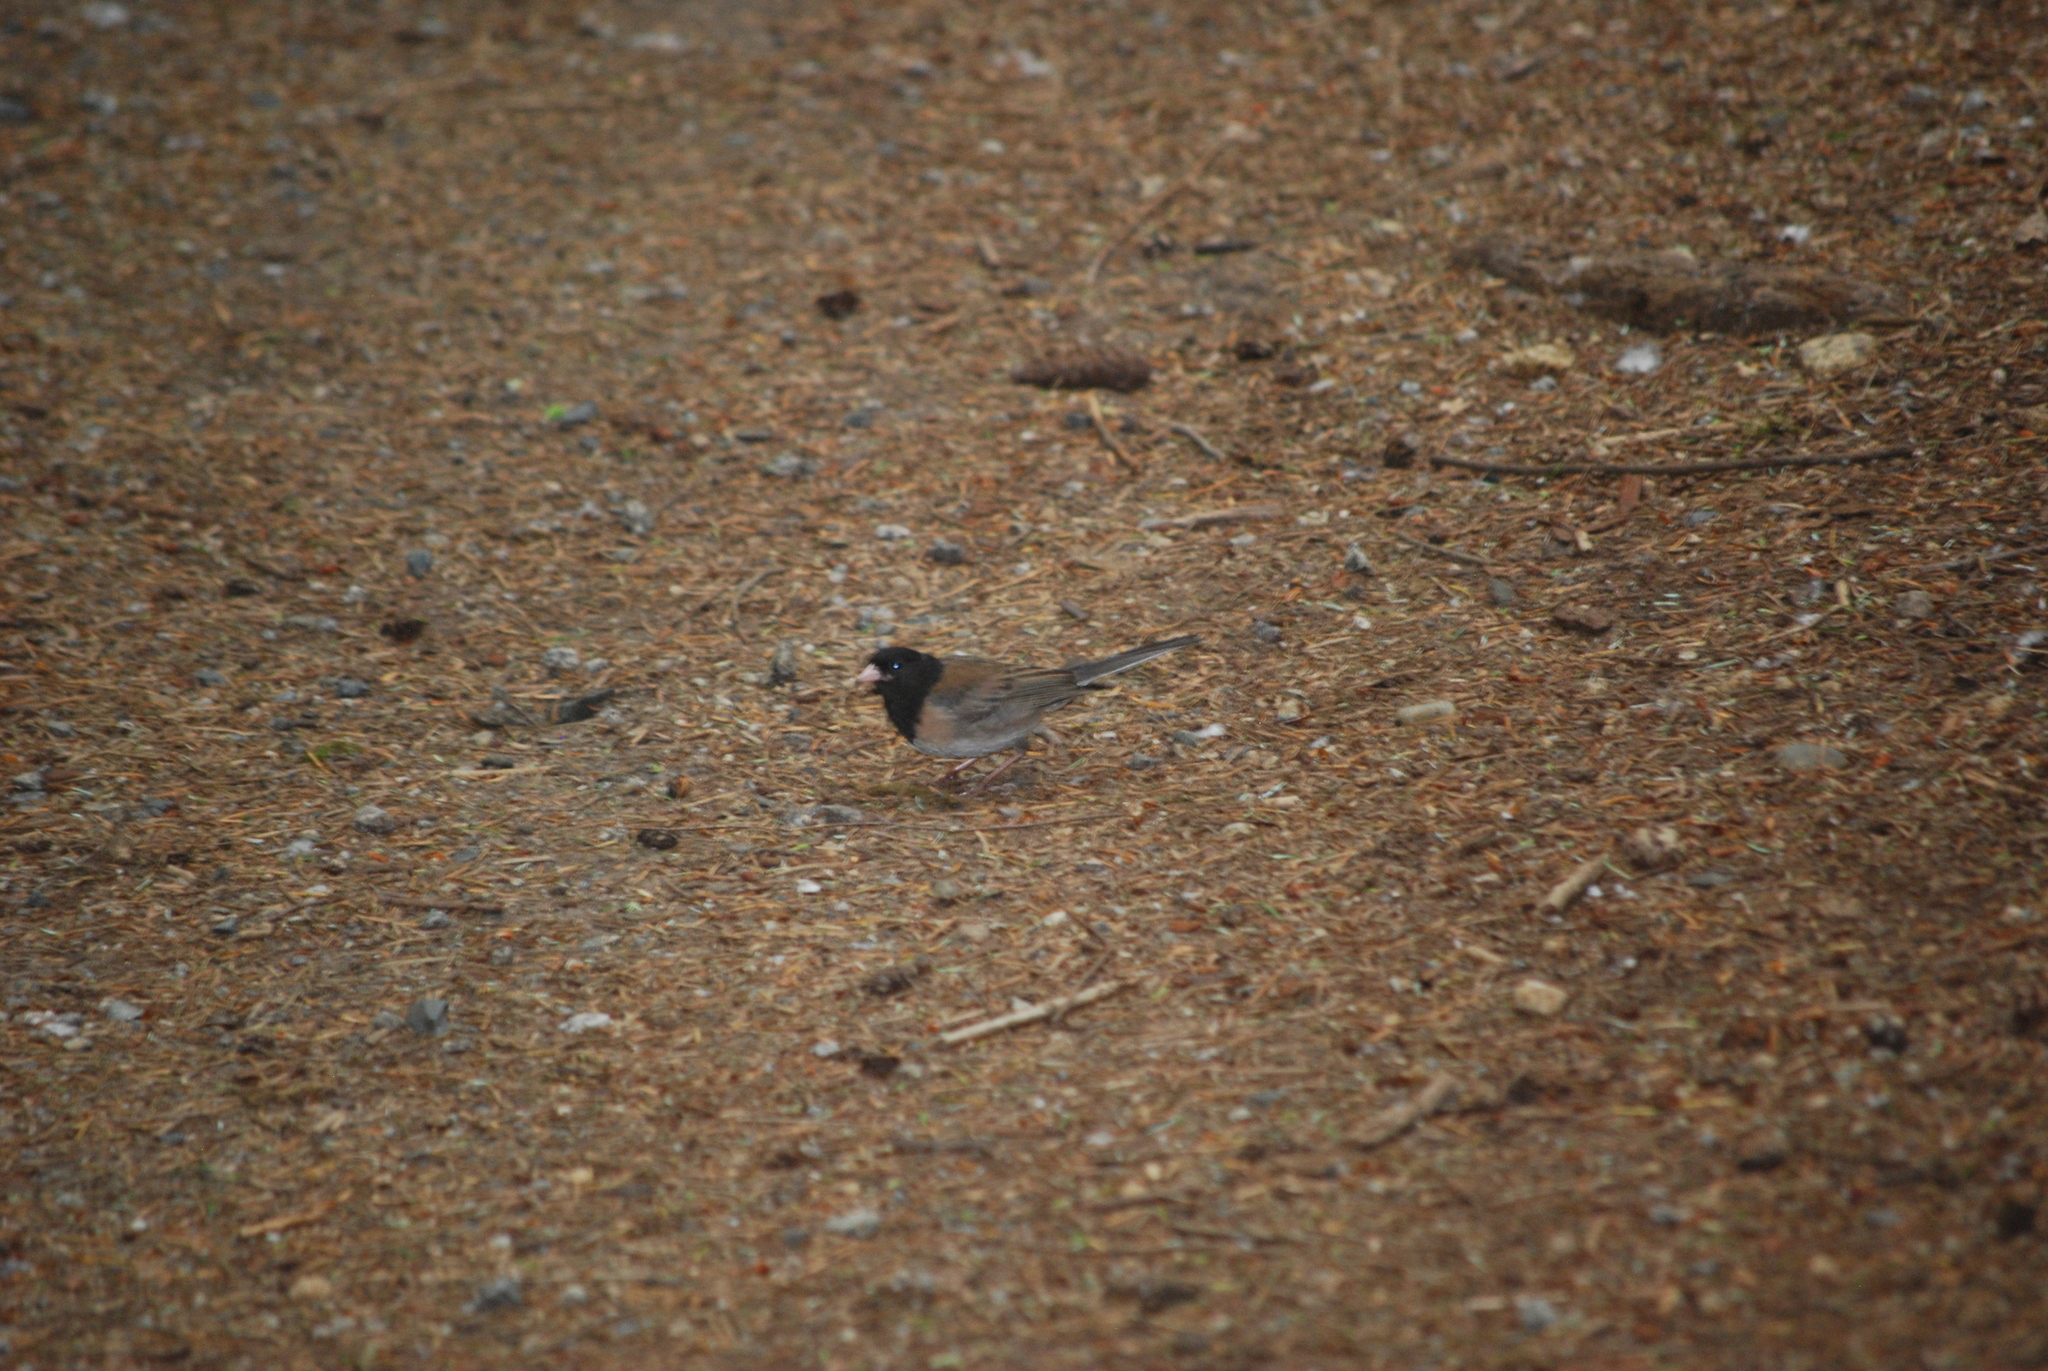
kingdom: Animalia
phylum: Chordata
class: Aves
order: Passeriformes
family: Passerellidae
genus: Junco
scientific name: Junco hyemalis
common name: Dark-eyed junco
